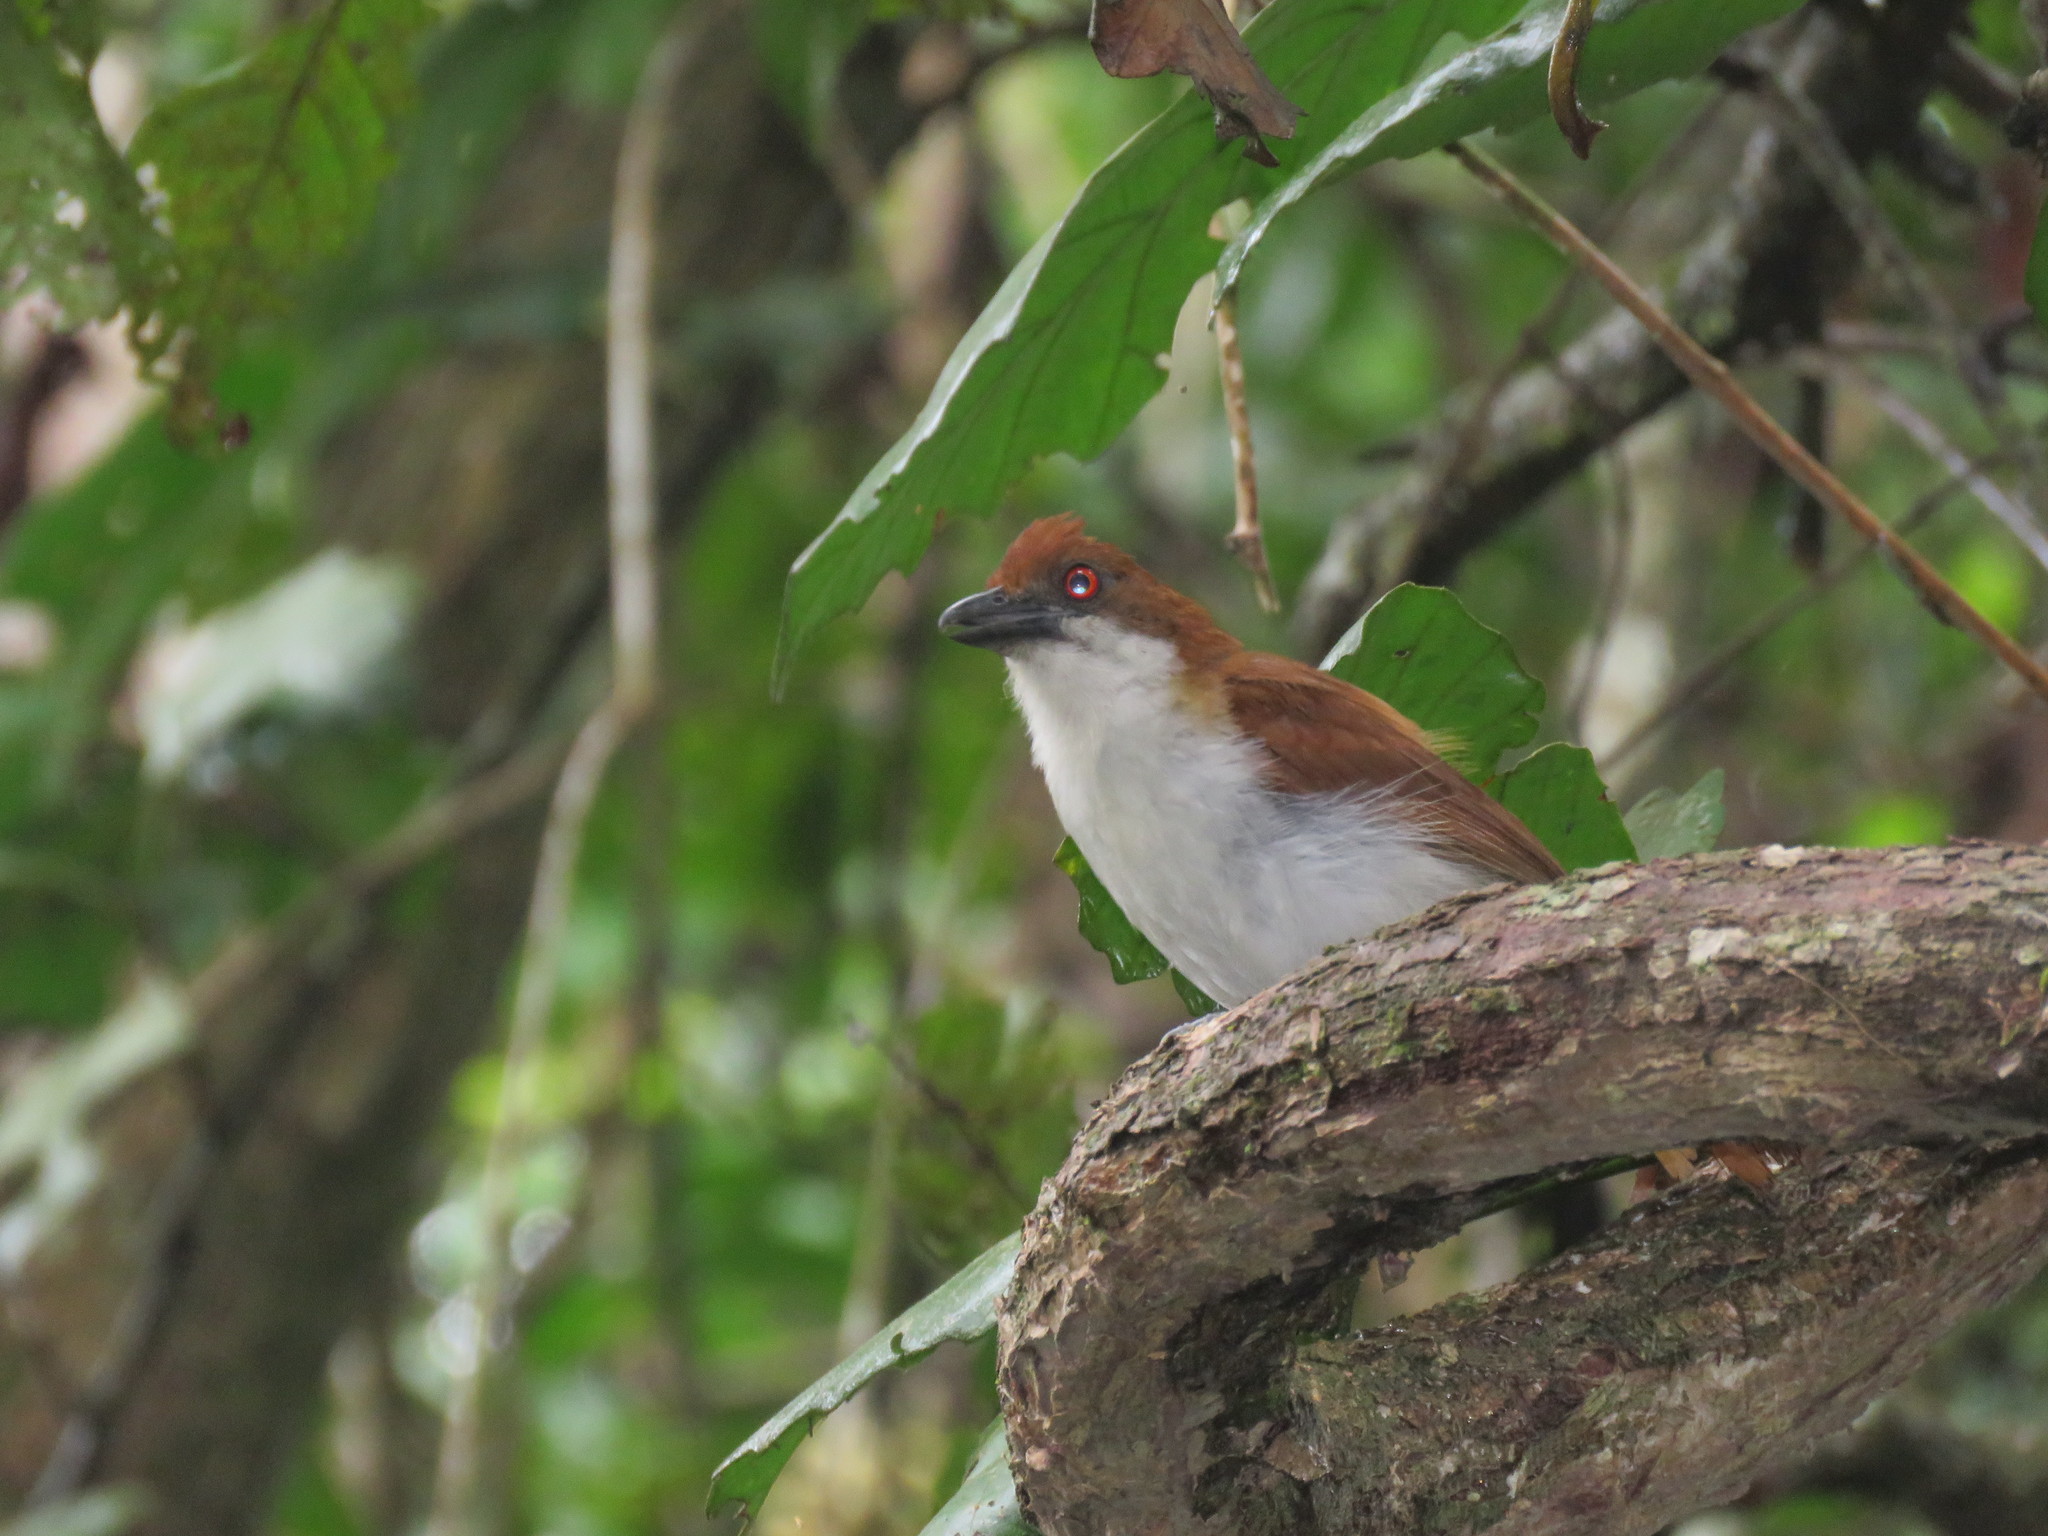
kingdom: Animalia
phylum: Chordata
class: Aves
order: Passeriformes
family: Thamnophilidae
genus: Taraba
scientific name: Taraba major
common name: Great antshrike
